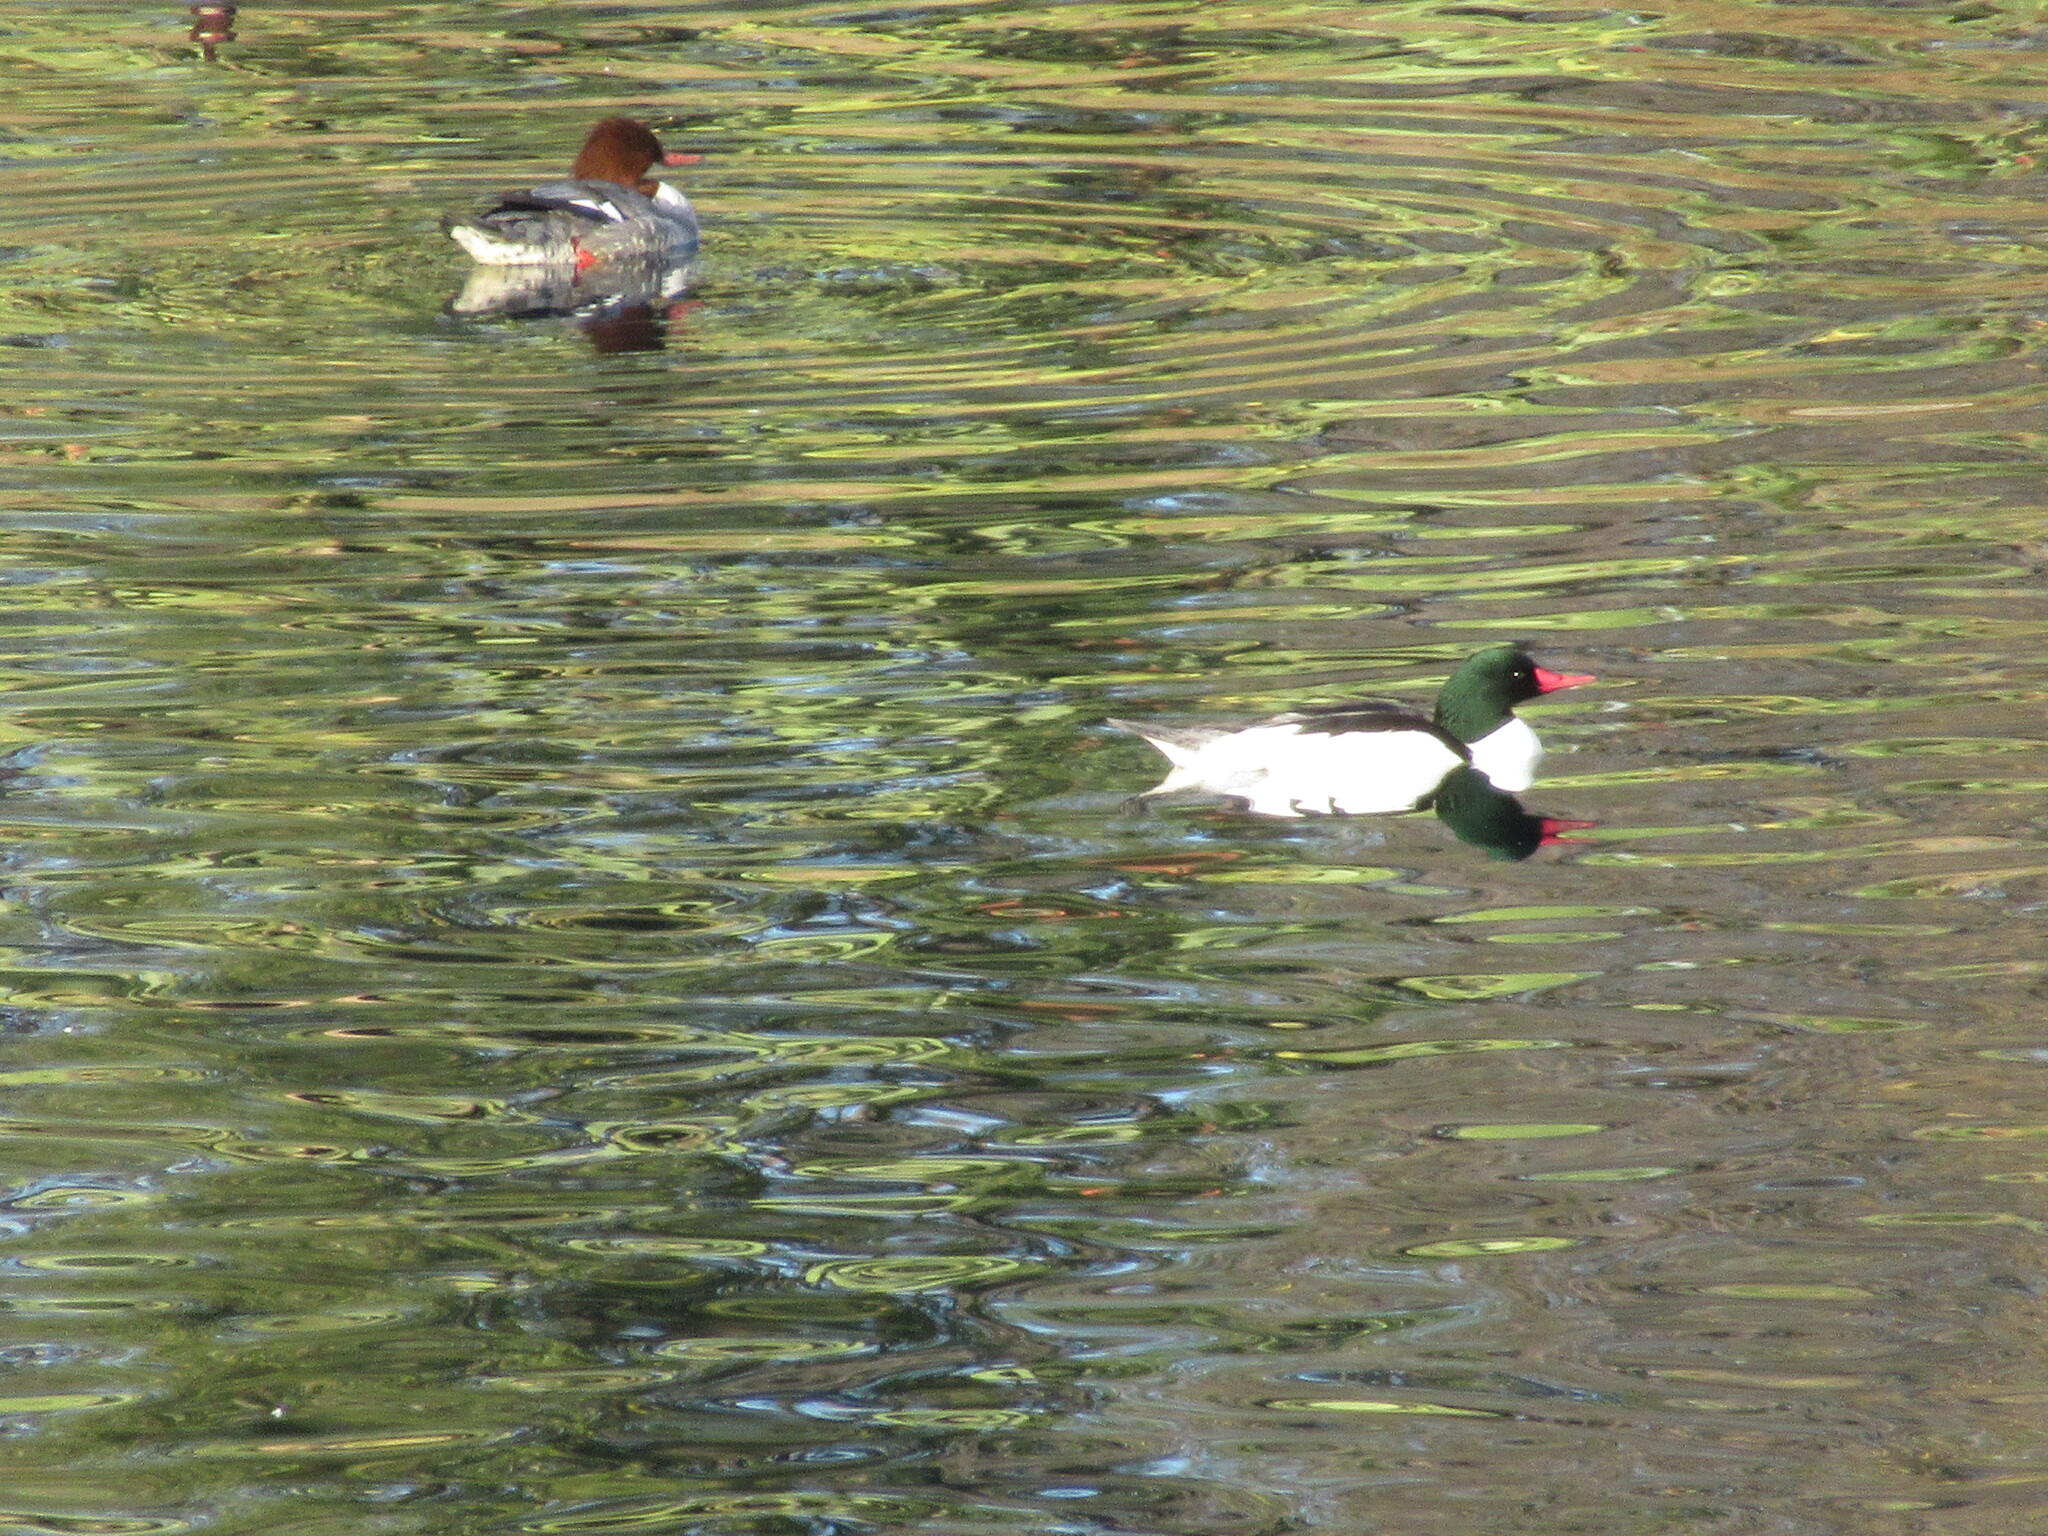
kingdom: Animalia
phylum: Chordata
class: Aves
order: Anseriformes
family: Anatidae
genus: Mergus
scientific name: Mergus merganser
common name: Common merganser
